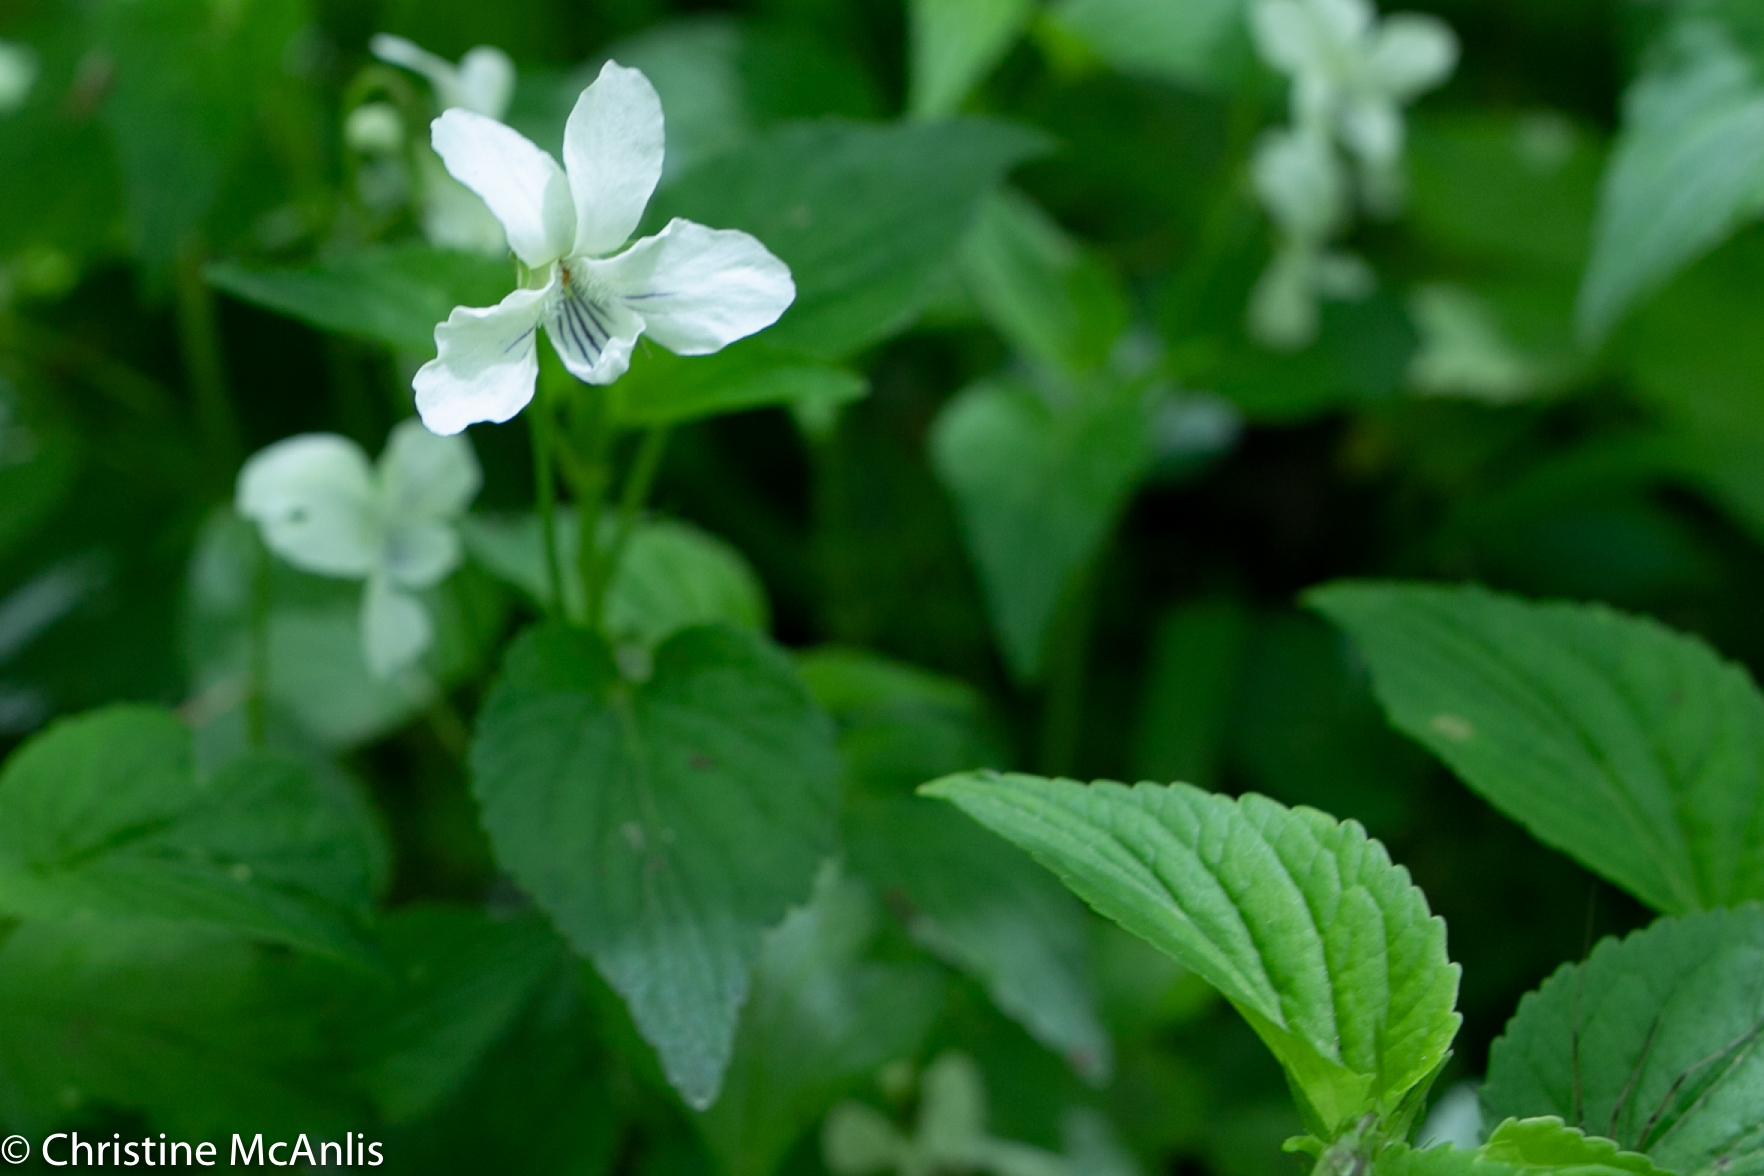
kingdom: Plantae
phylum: Tracheophyta
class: Magnoliopsida
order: Malpighiales
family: Violaceae
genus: Viola
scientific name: Viola striata
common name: Cream violet
